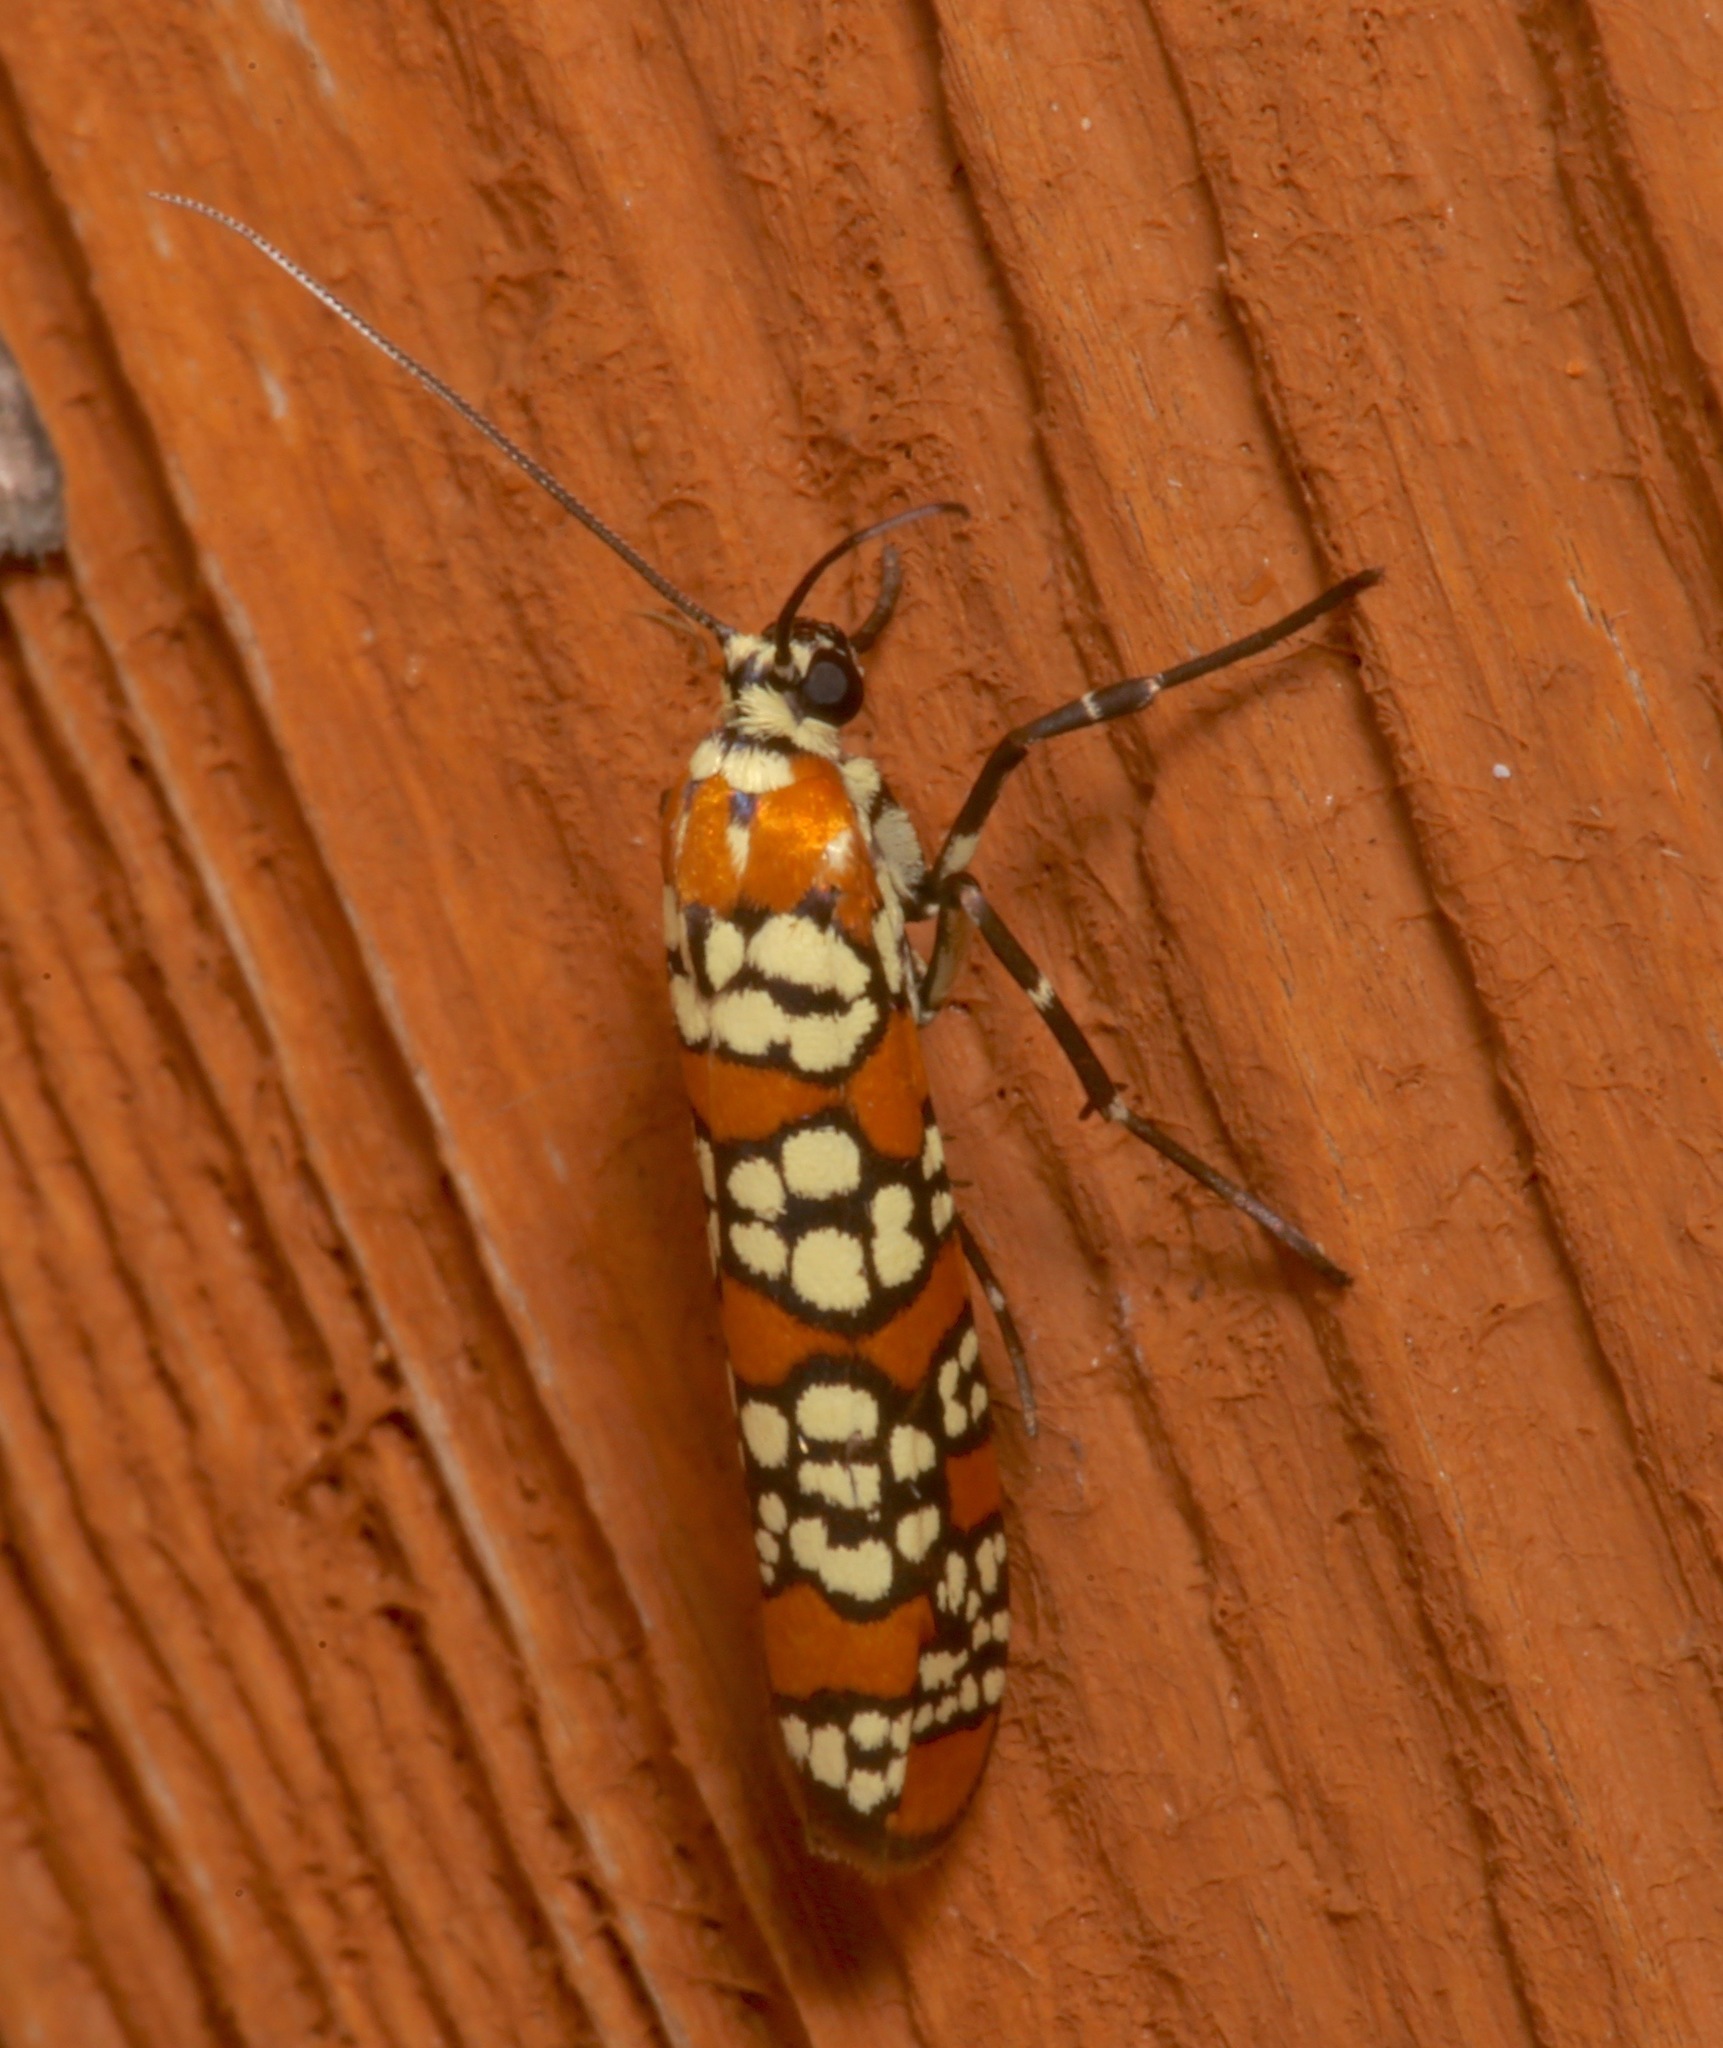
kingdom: Animalia
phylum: Arthropoda
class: Insecta
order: Lepidoptera
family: Attevidae
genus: Atteva
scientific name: Atteva punctella
